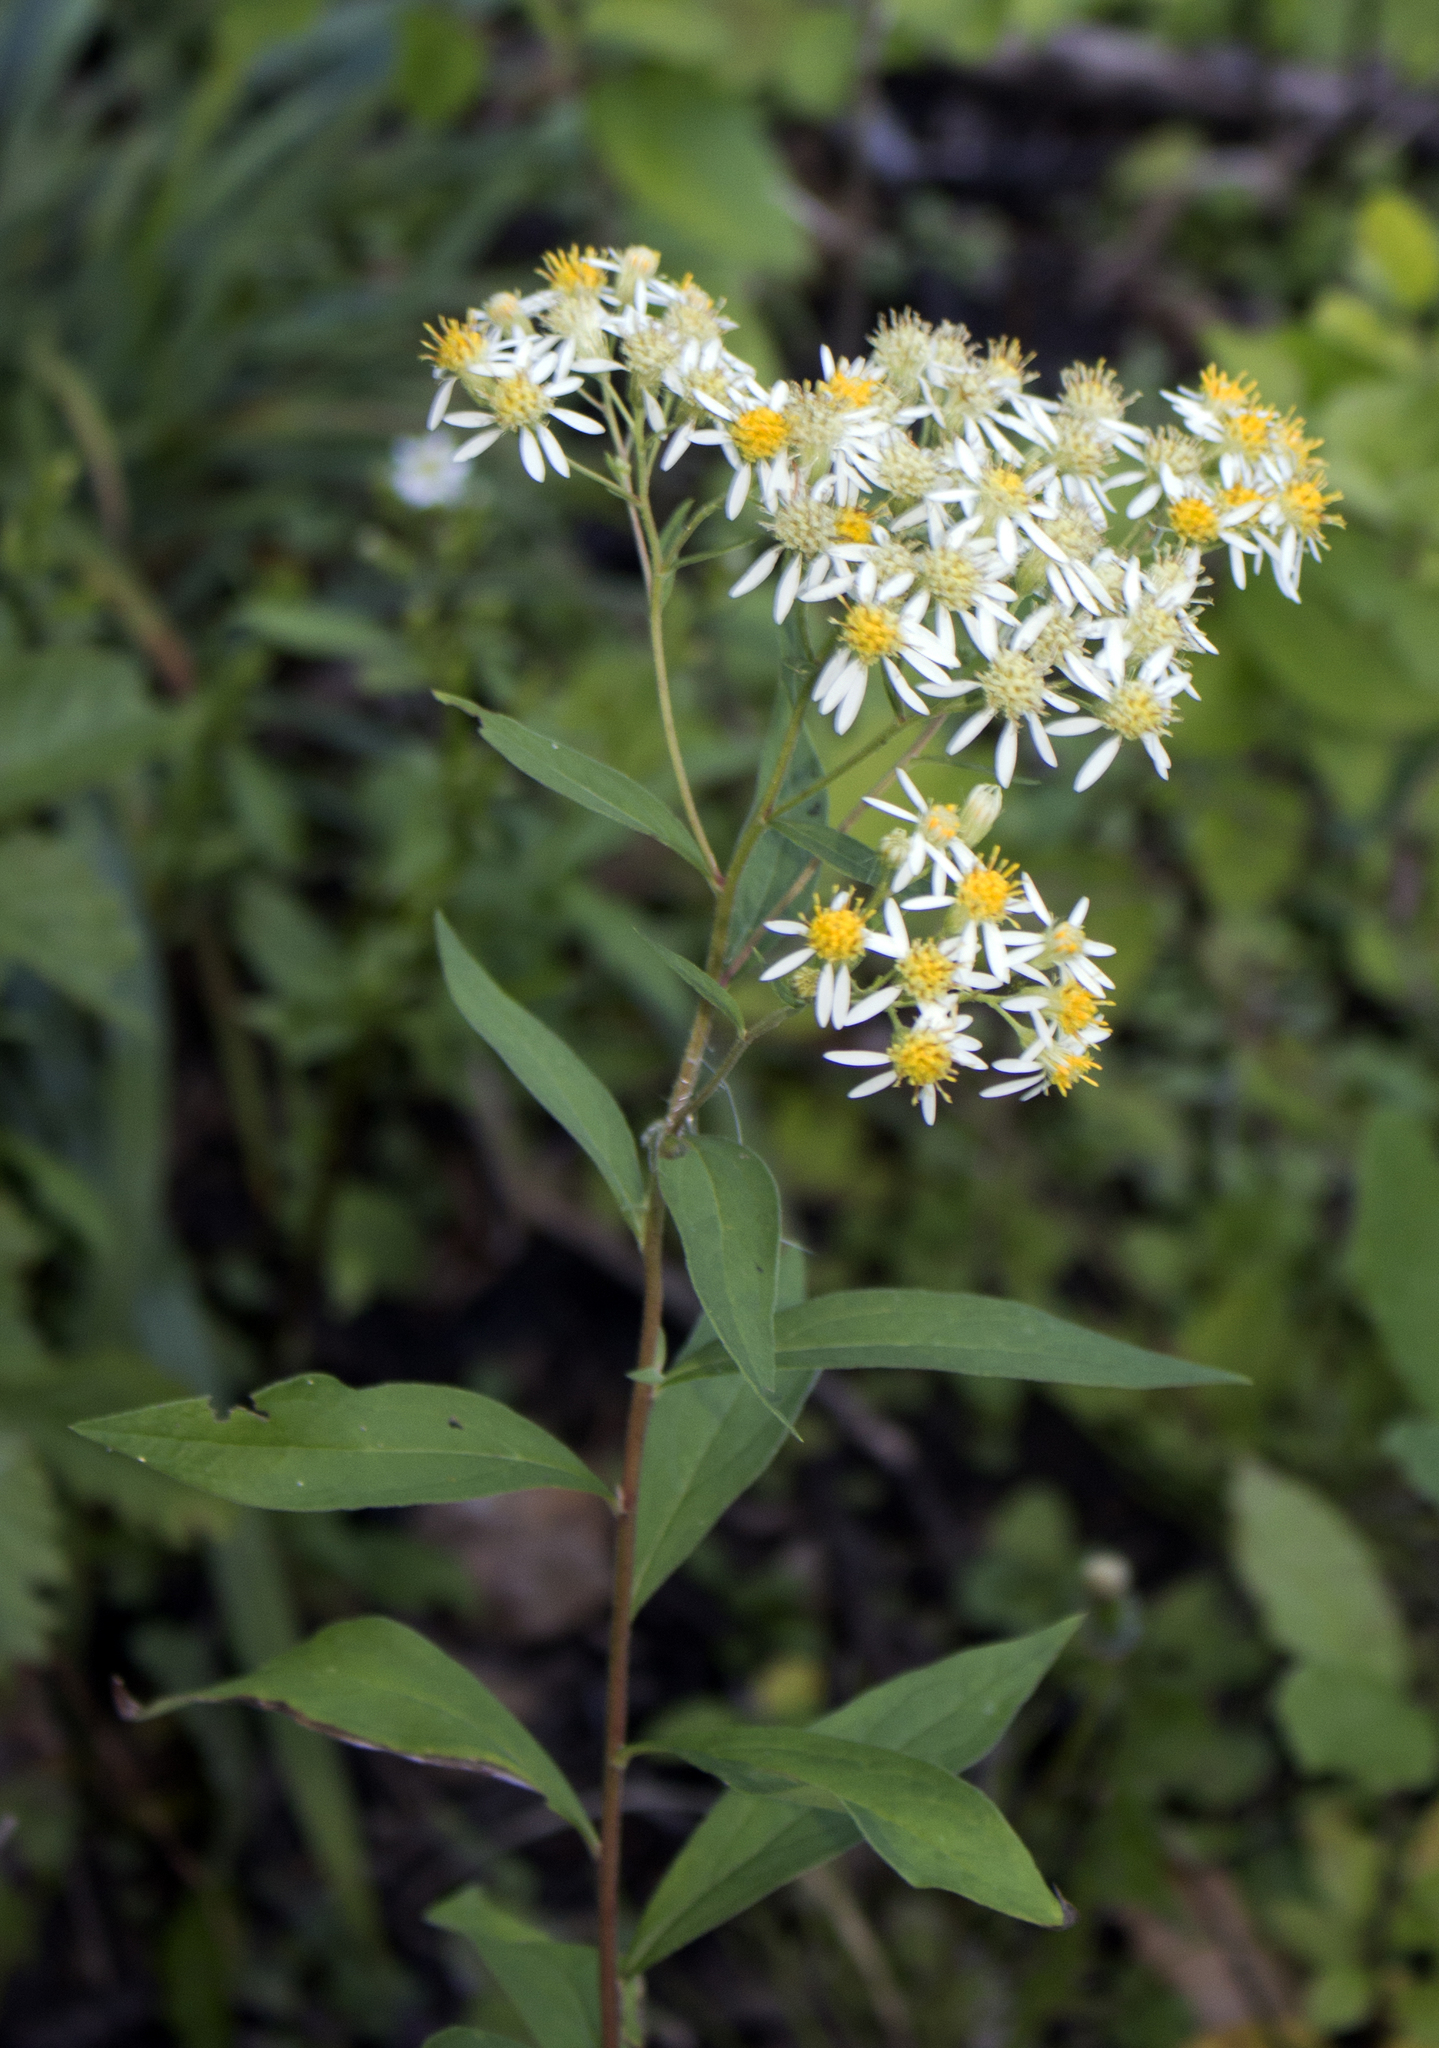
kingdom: Plantae
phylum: Tracheophyta
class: Magnoliopsida
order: Asterales
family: Asteraceae
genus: Doellingeria
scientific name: Doellingeria umbellata
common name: Flat-top white aster
